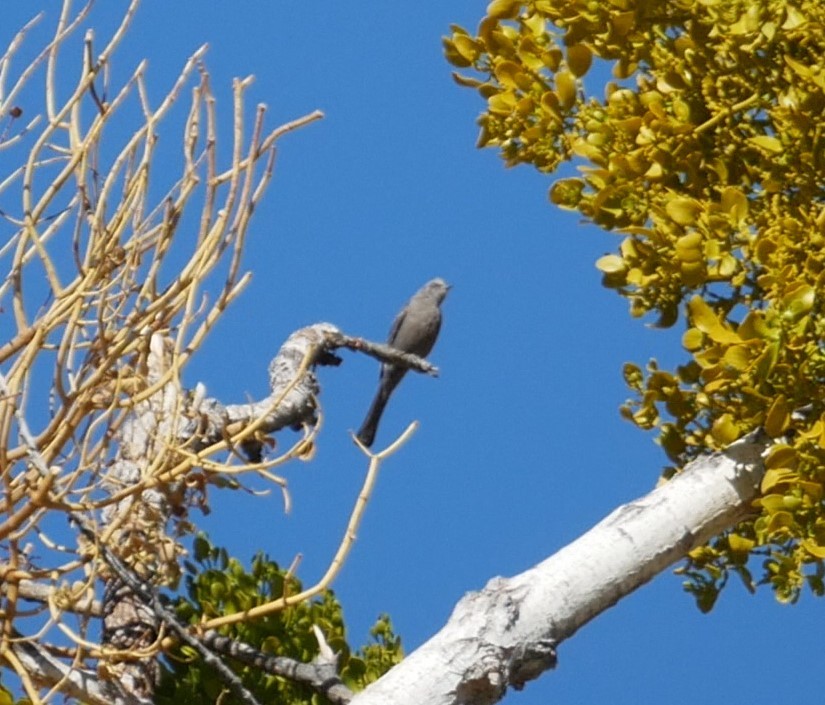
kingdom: Animalia
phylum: Chordata
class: Aves
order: Passeriformes
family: Turdidae
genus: Myadestes
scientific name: Myadestes townsendi
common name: Townsend's solitaire
